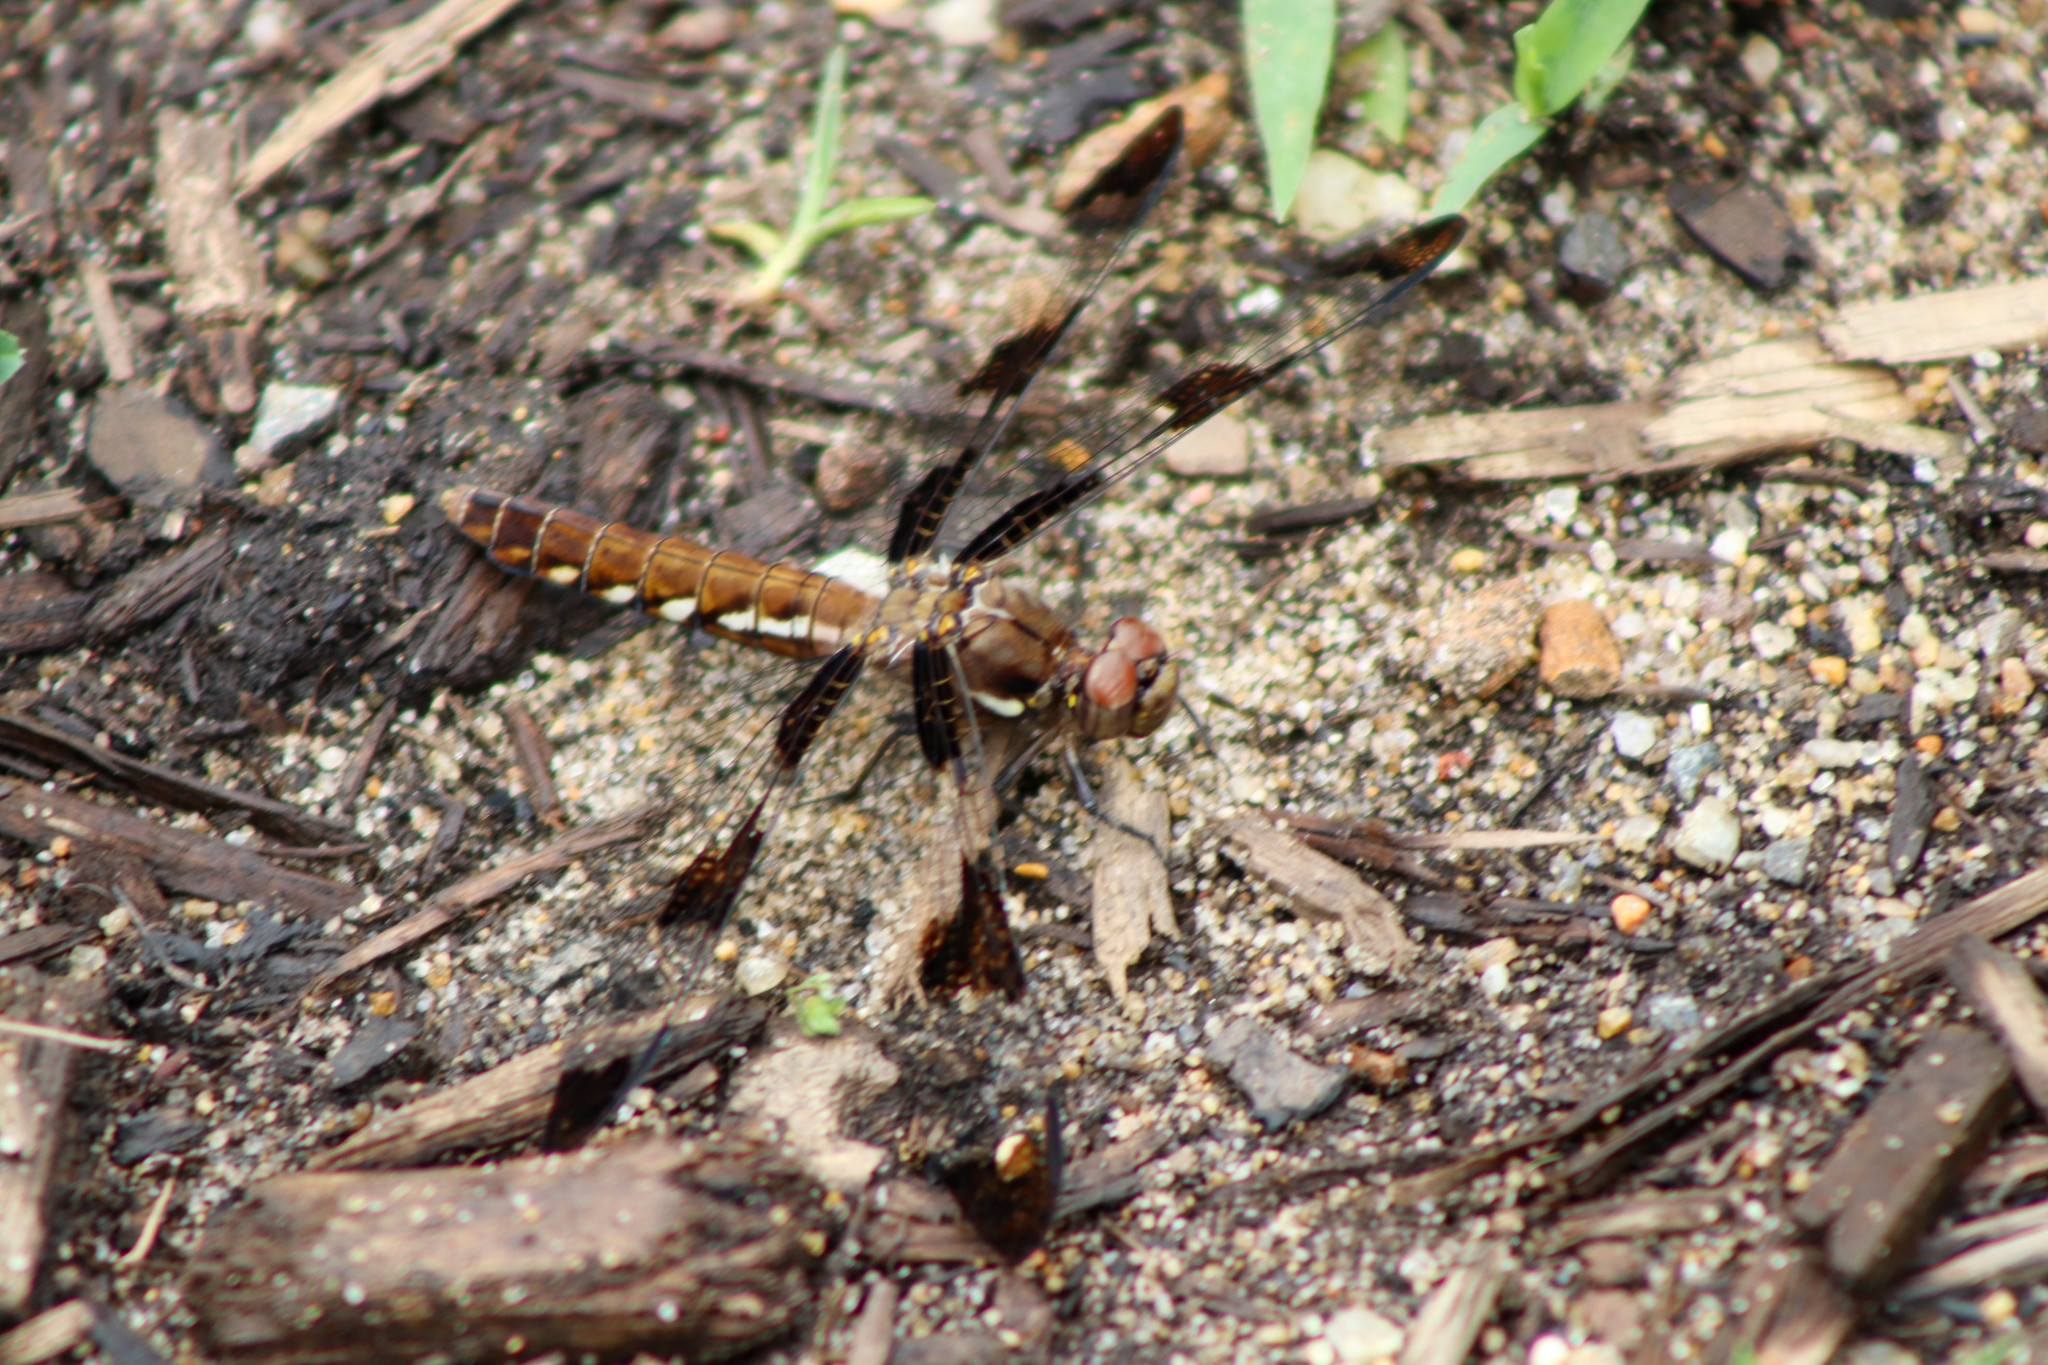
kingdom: Animalia
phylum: Arthropoda
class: Insecta
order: Odonata
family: Libellulidae
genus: Plathemis
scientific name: Plathemis lydia
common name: Common whitetail
